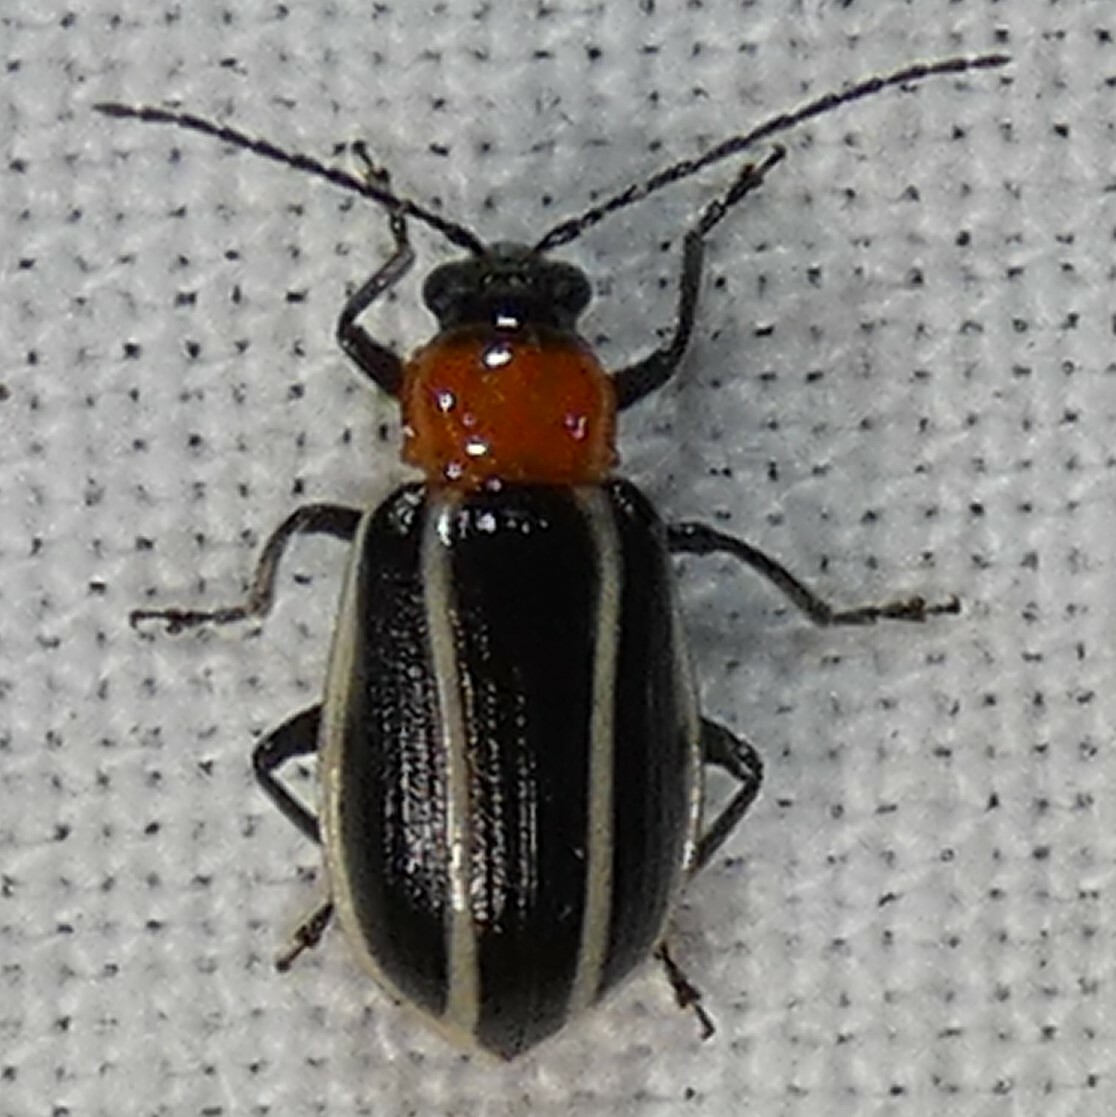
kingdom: Animalia
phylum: Arthropoda
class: Insecta
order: Coleoptera
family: Chrysomelidae
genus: Acalymma
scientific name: Acalymma vinctum
